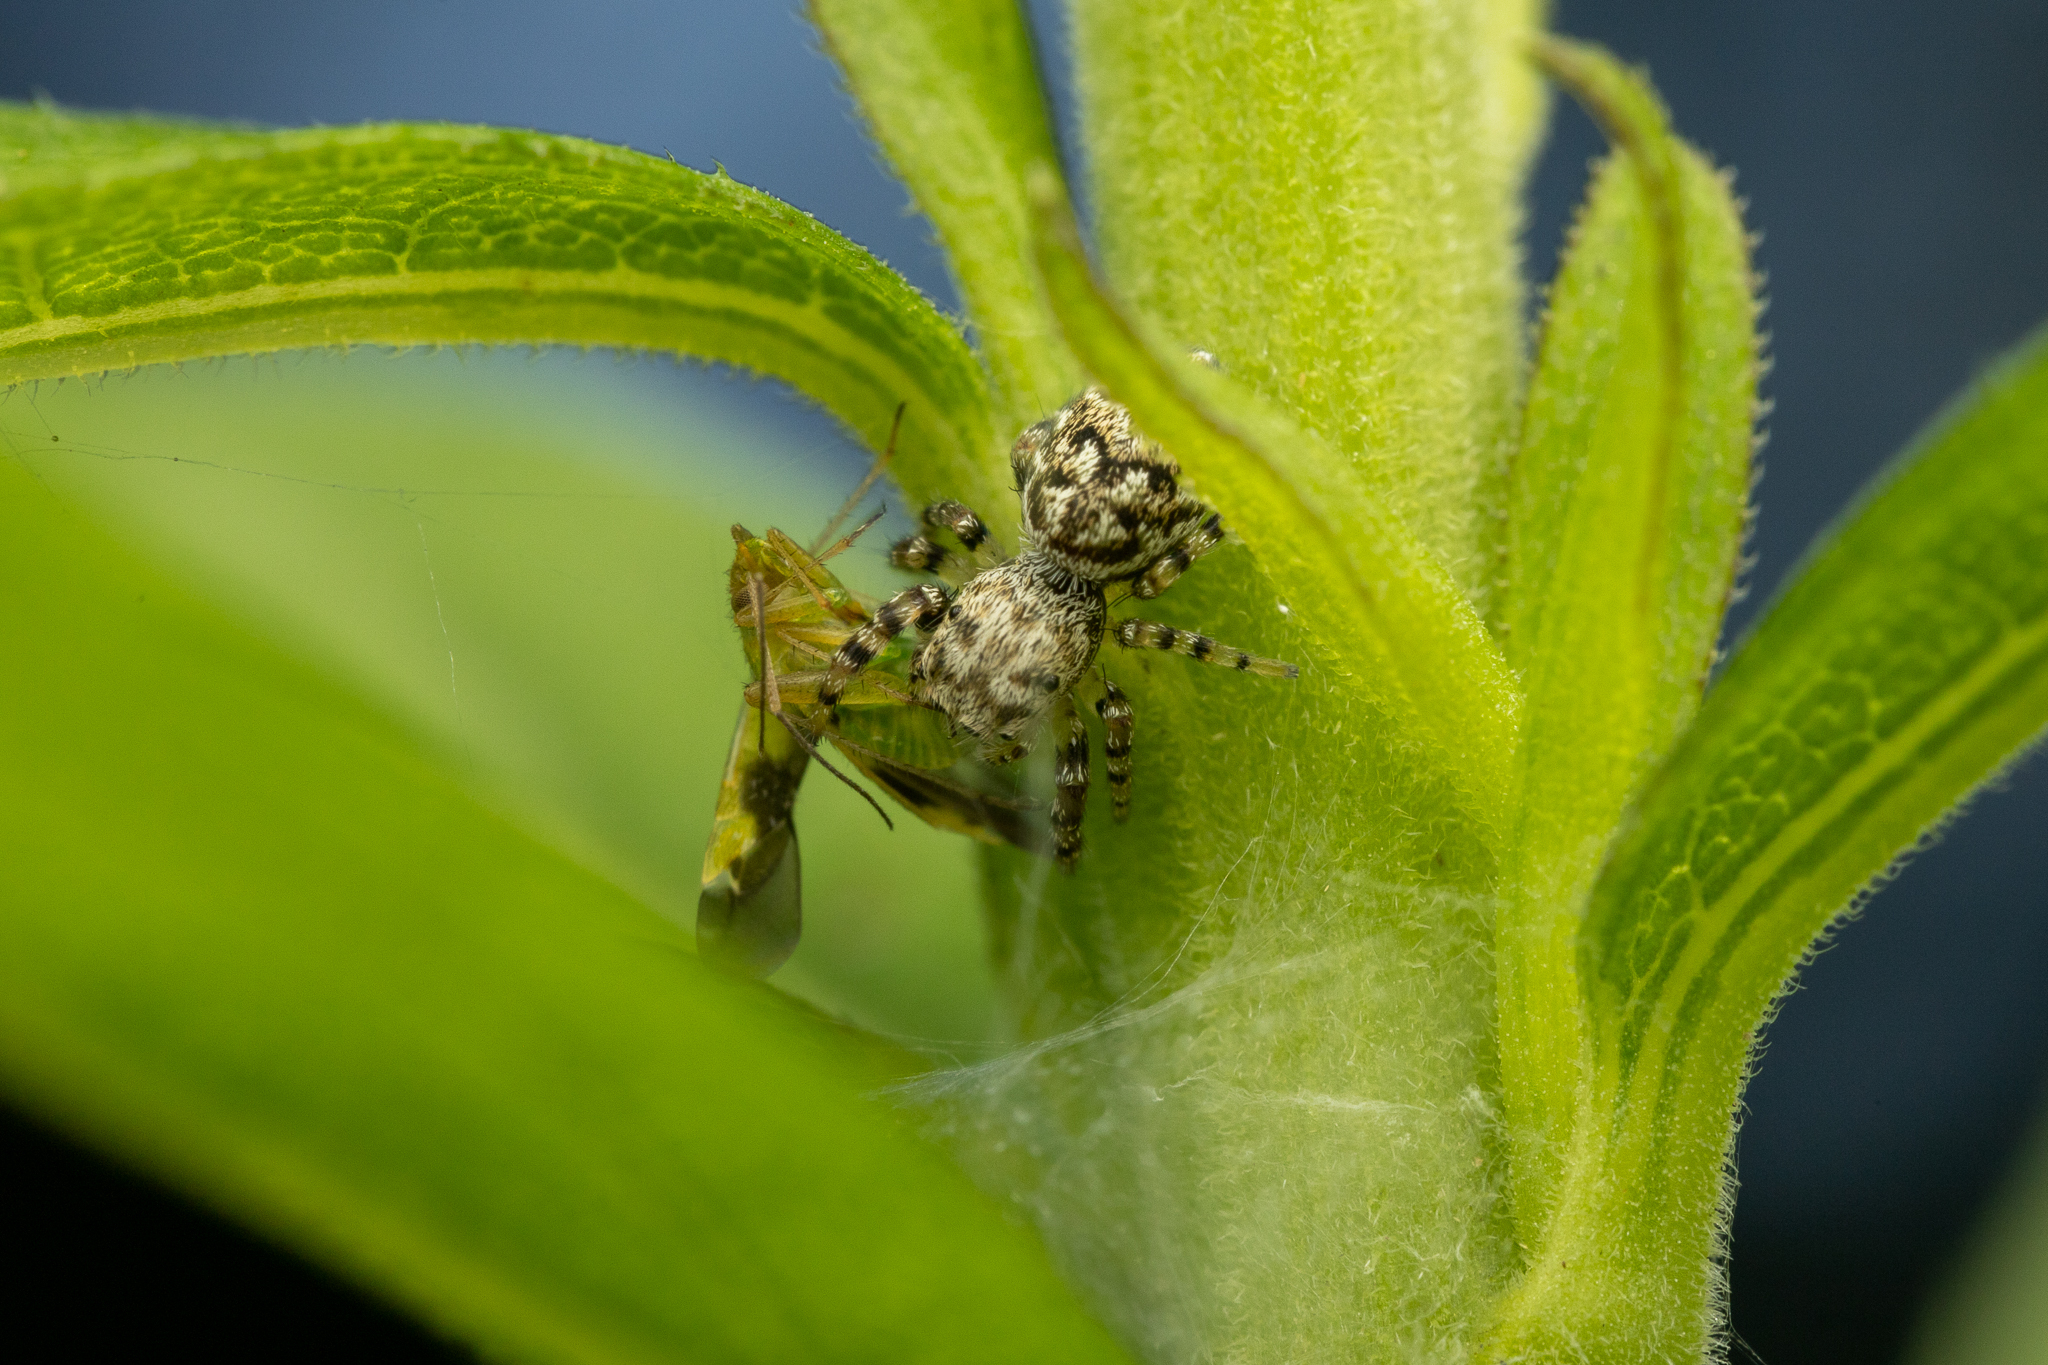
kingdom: Animalia
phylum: Arthropoda
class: Arachnida
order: Araneae
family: Salticidae
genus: Pelegrina
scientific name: Pelegrina galathea
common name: Jumping spiders
